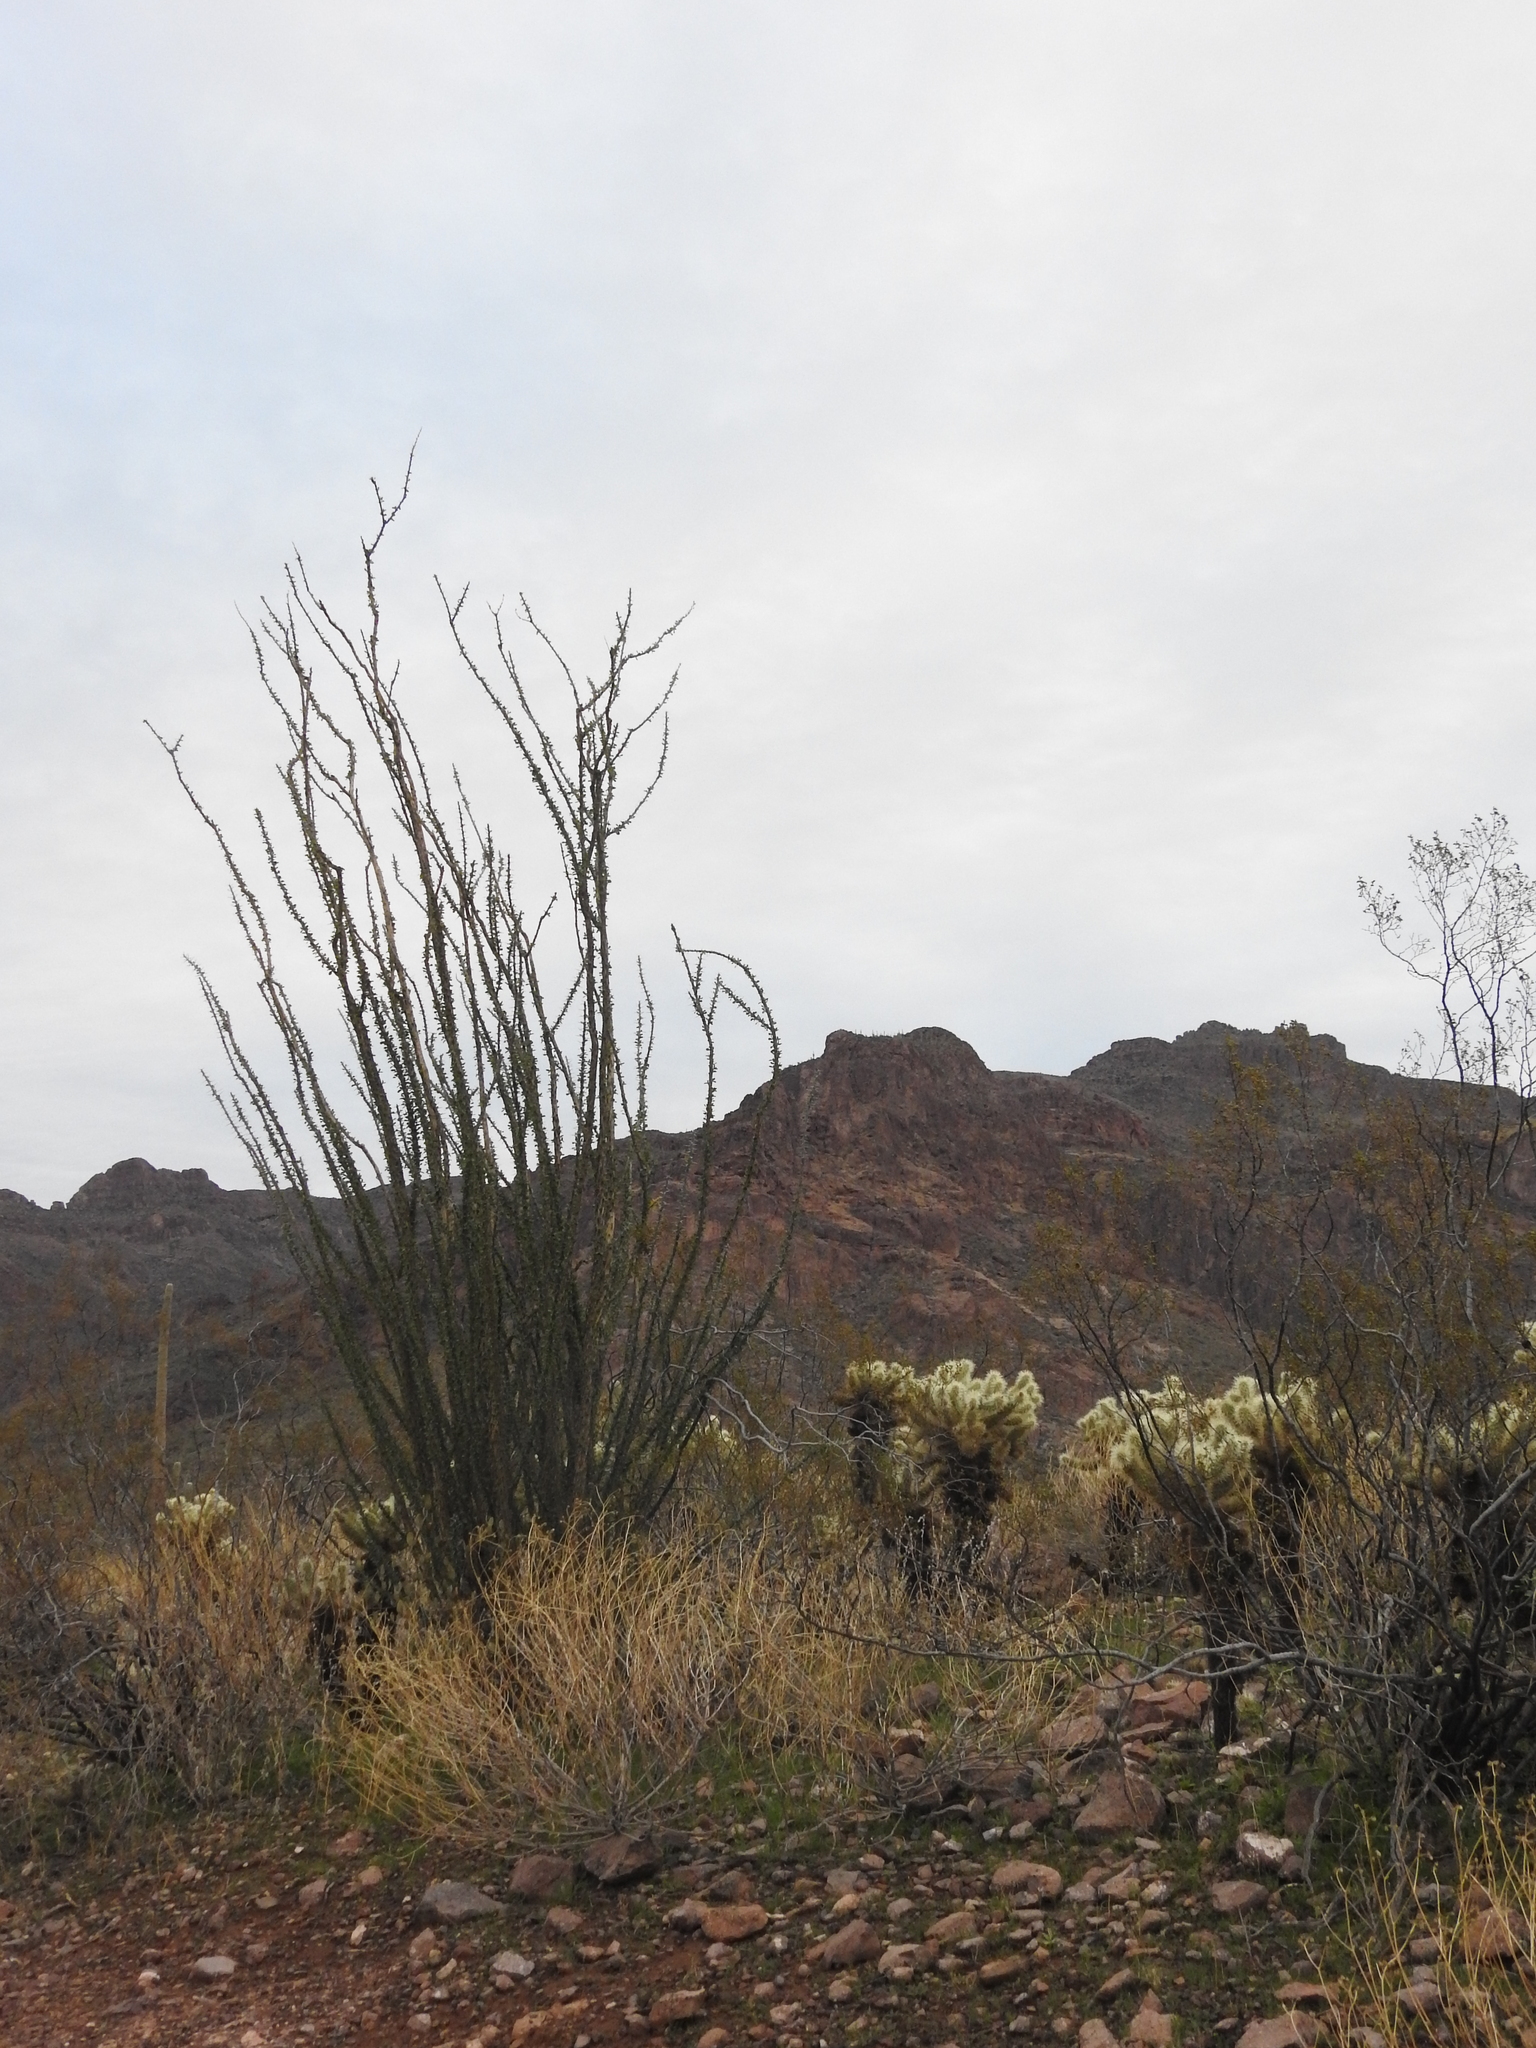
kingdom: Plantae
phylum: Tracheophyta
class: Magnoliopsida
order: Ericales
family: Fouquieriaceae
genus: Fouquieria
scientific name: Fouquieria splendens
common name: Vine-cactus
